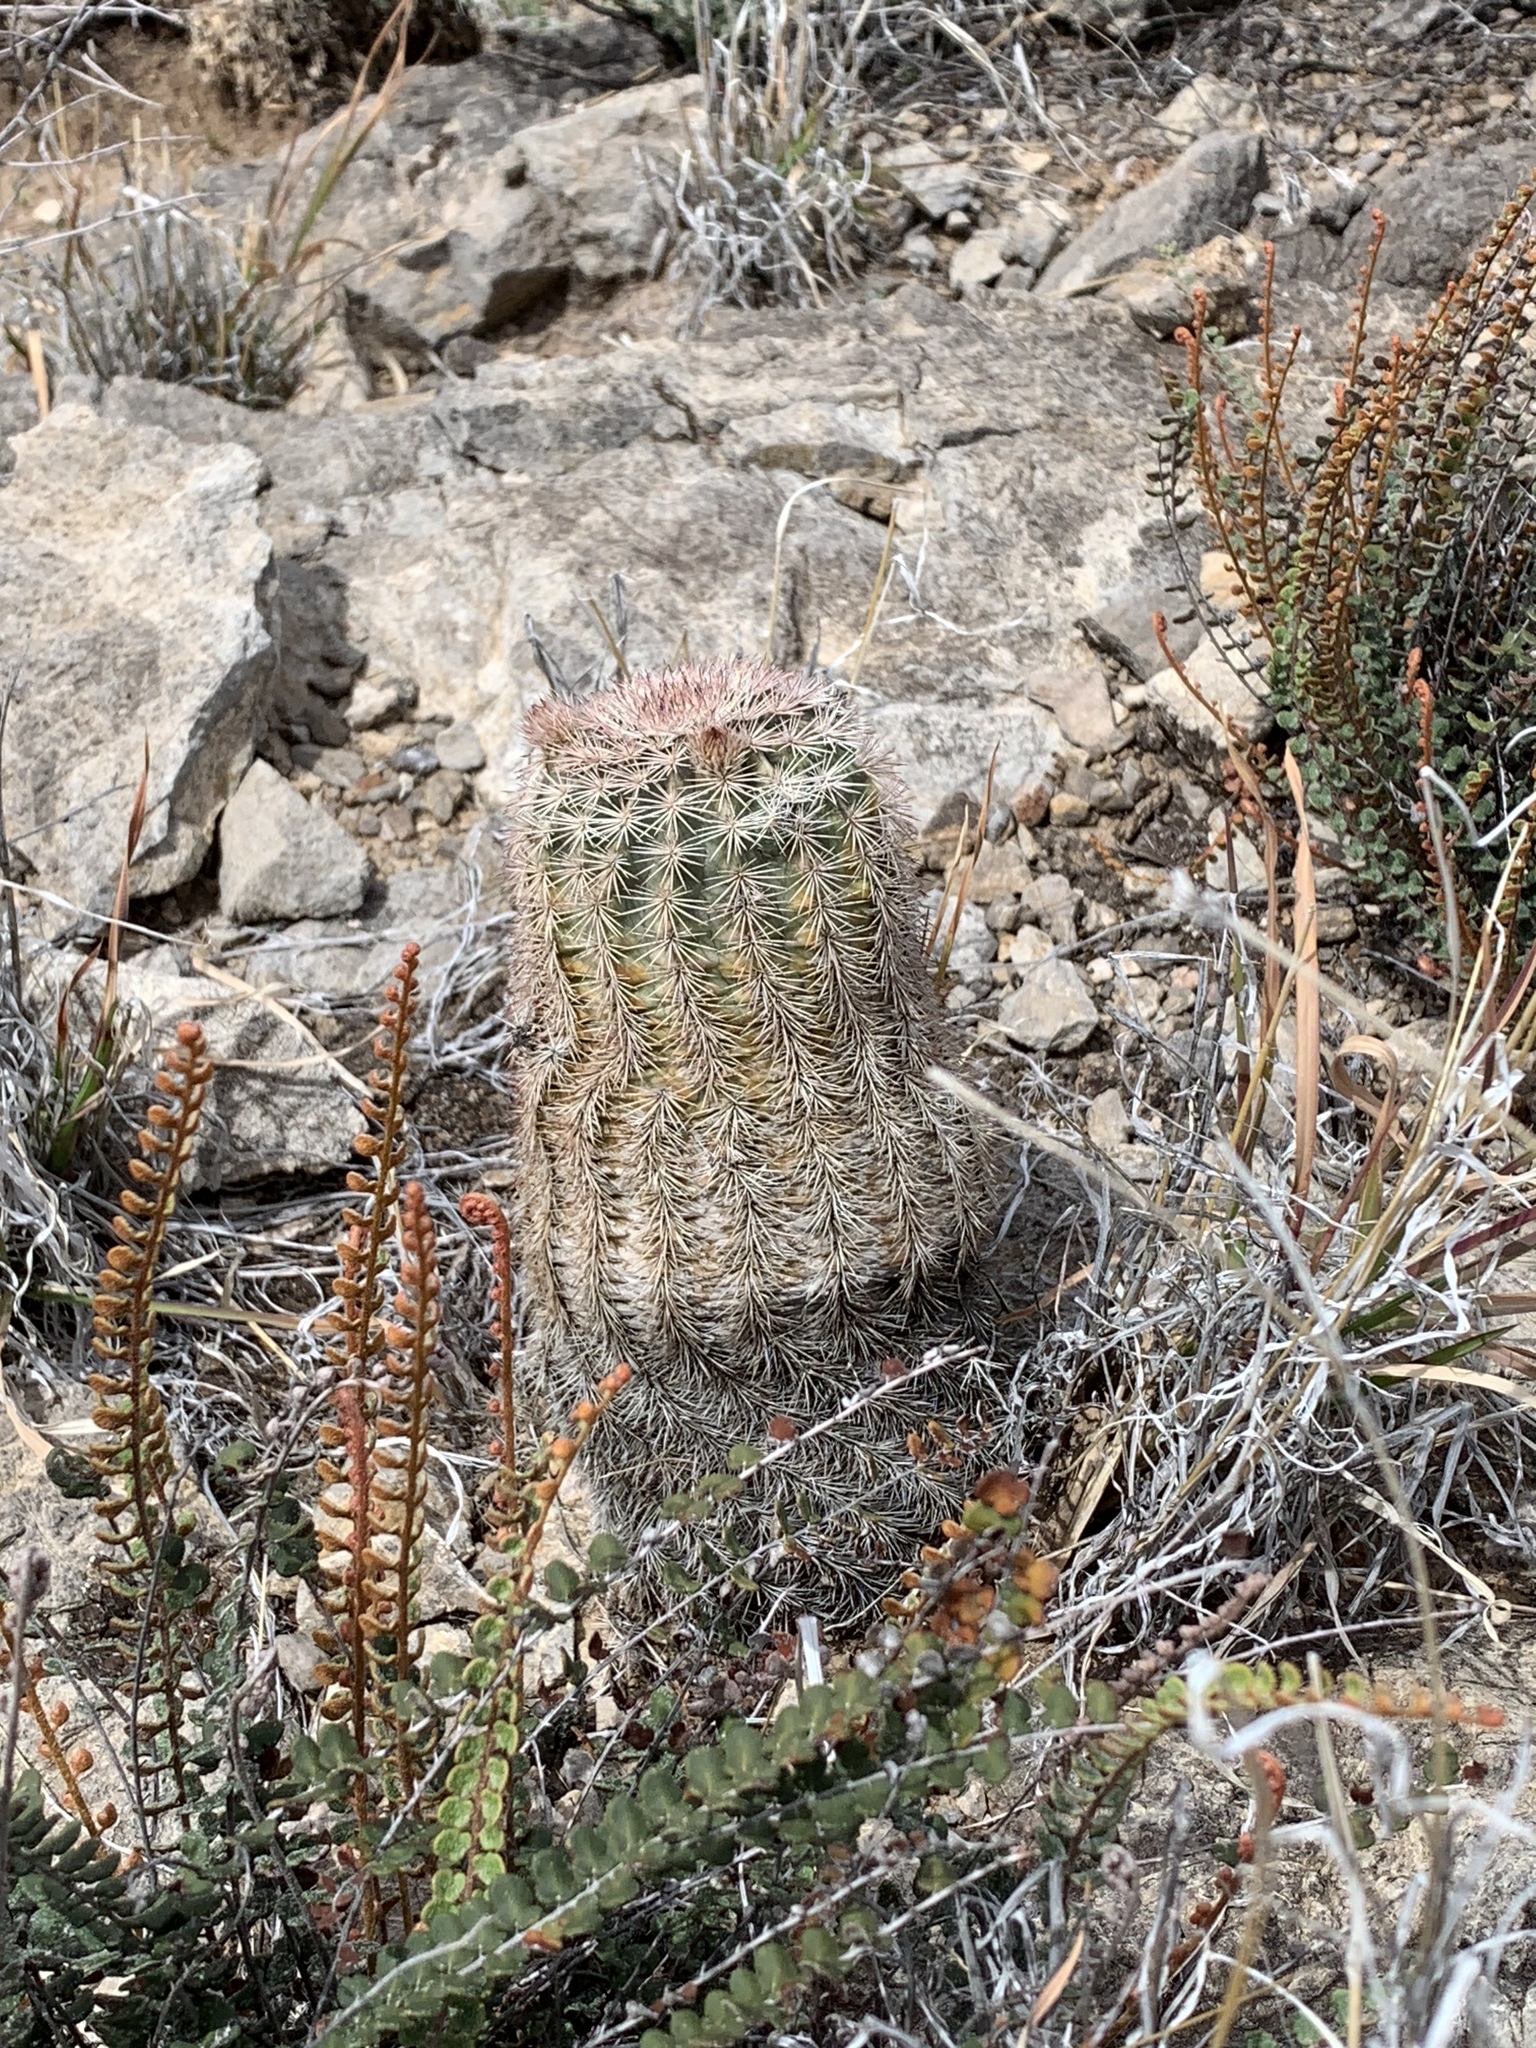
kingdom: Plantae
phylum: Tracheophyta
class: Magnoliopsida
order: Caryophyllales
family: Cactaceae
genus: Echinocereus
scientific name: Echinocereus dasyacanthus
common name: Spiny hedgehog cactus
